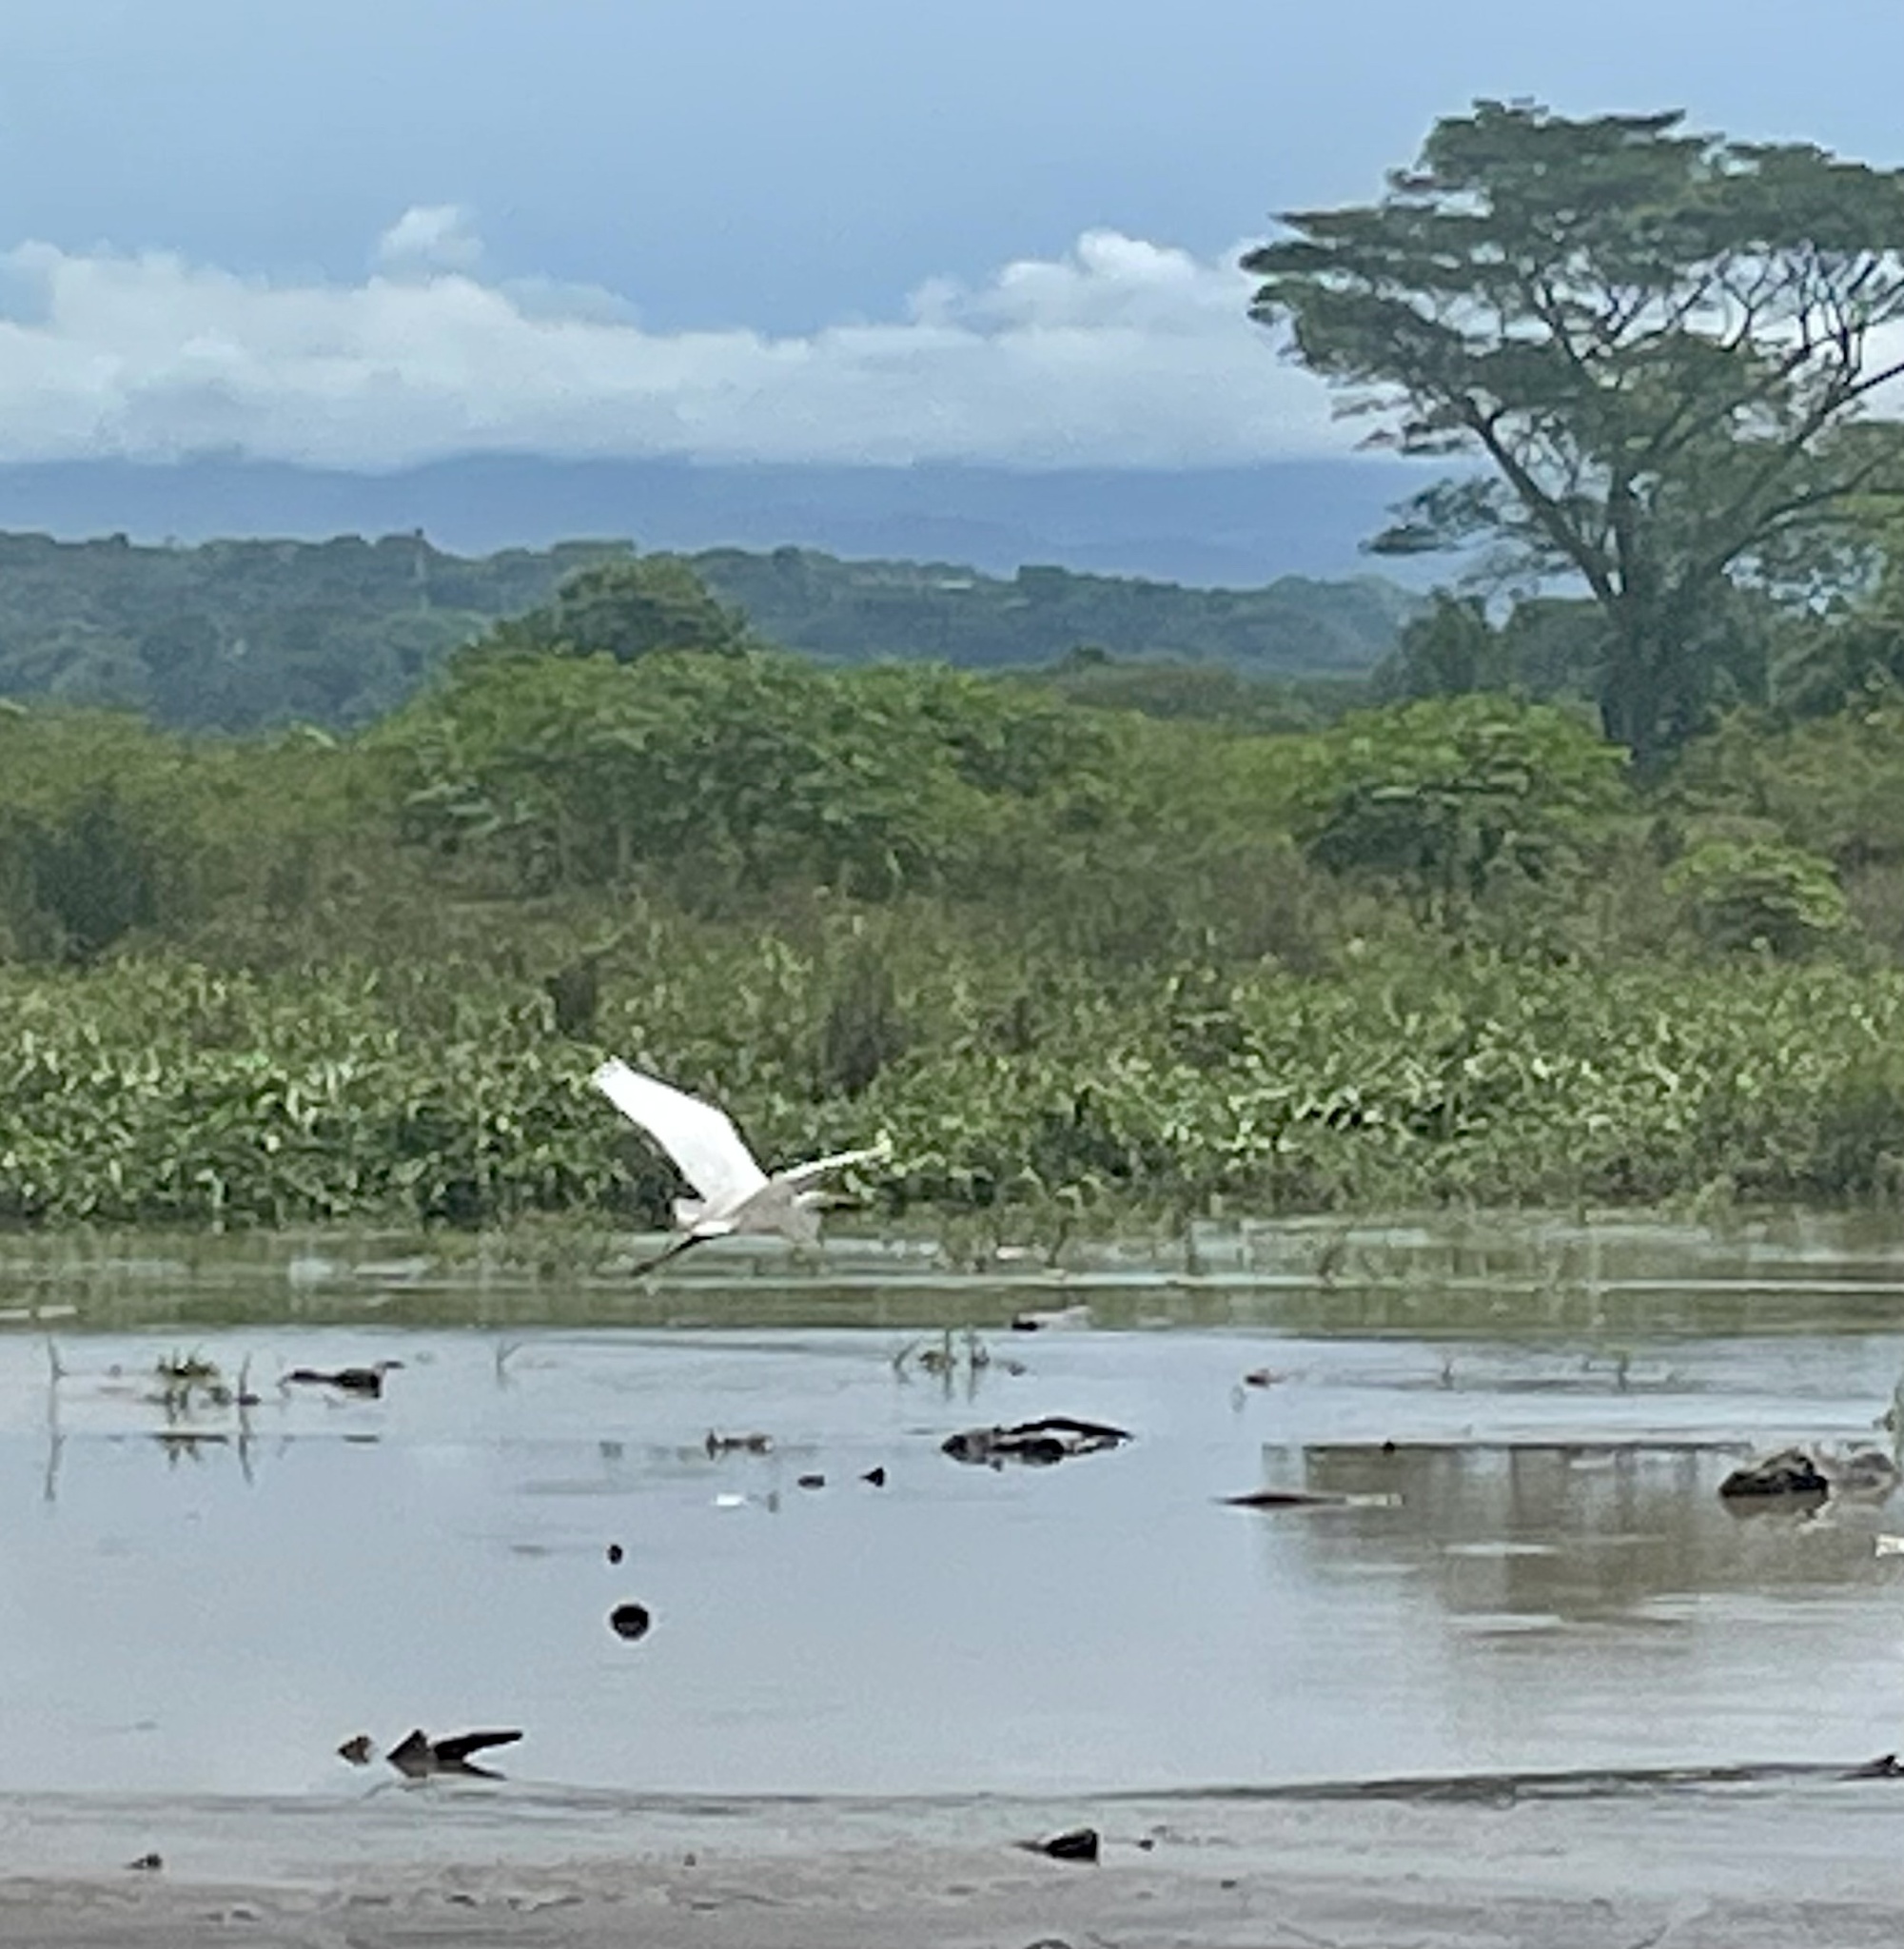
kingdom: Animalia
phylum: Chordata
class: Aves
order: Pelecaniformes
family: Ardeidae
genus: Ardea
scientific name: Ardea alba
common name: Great egret
